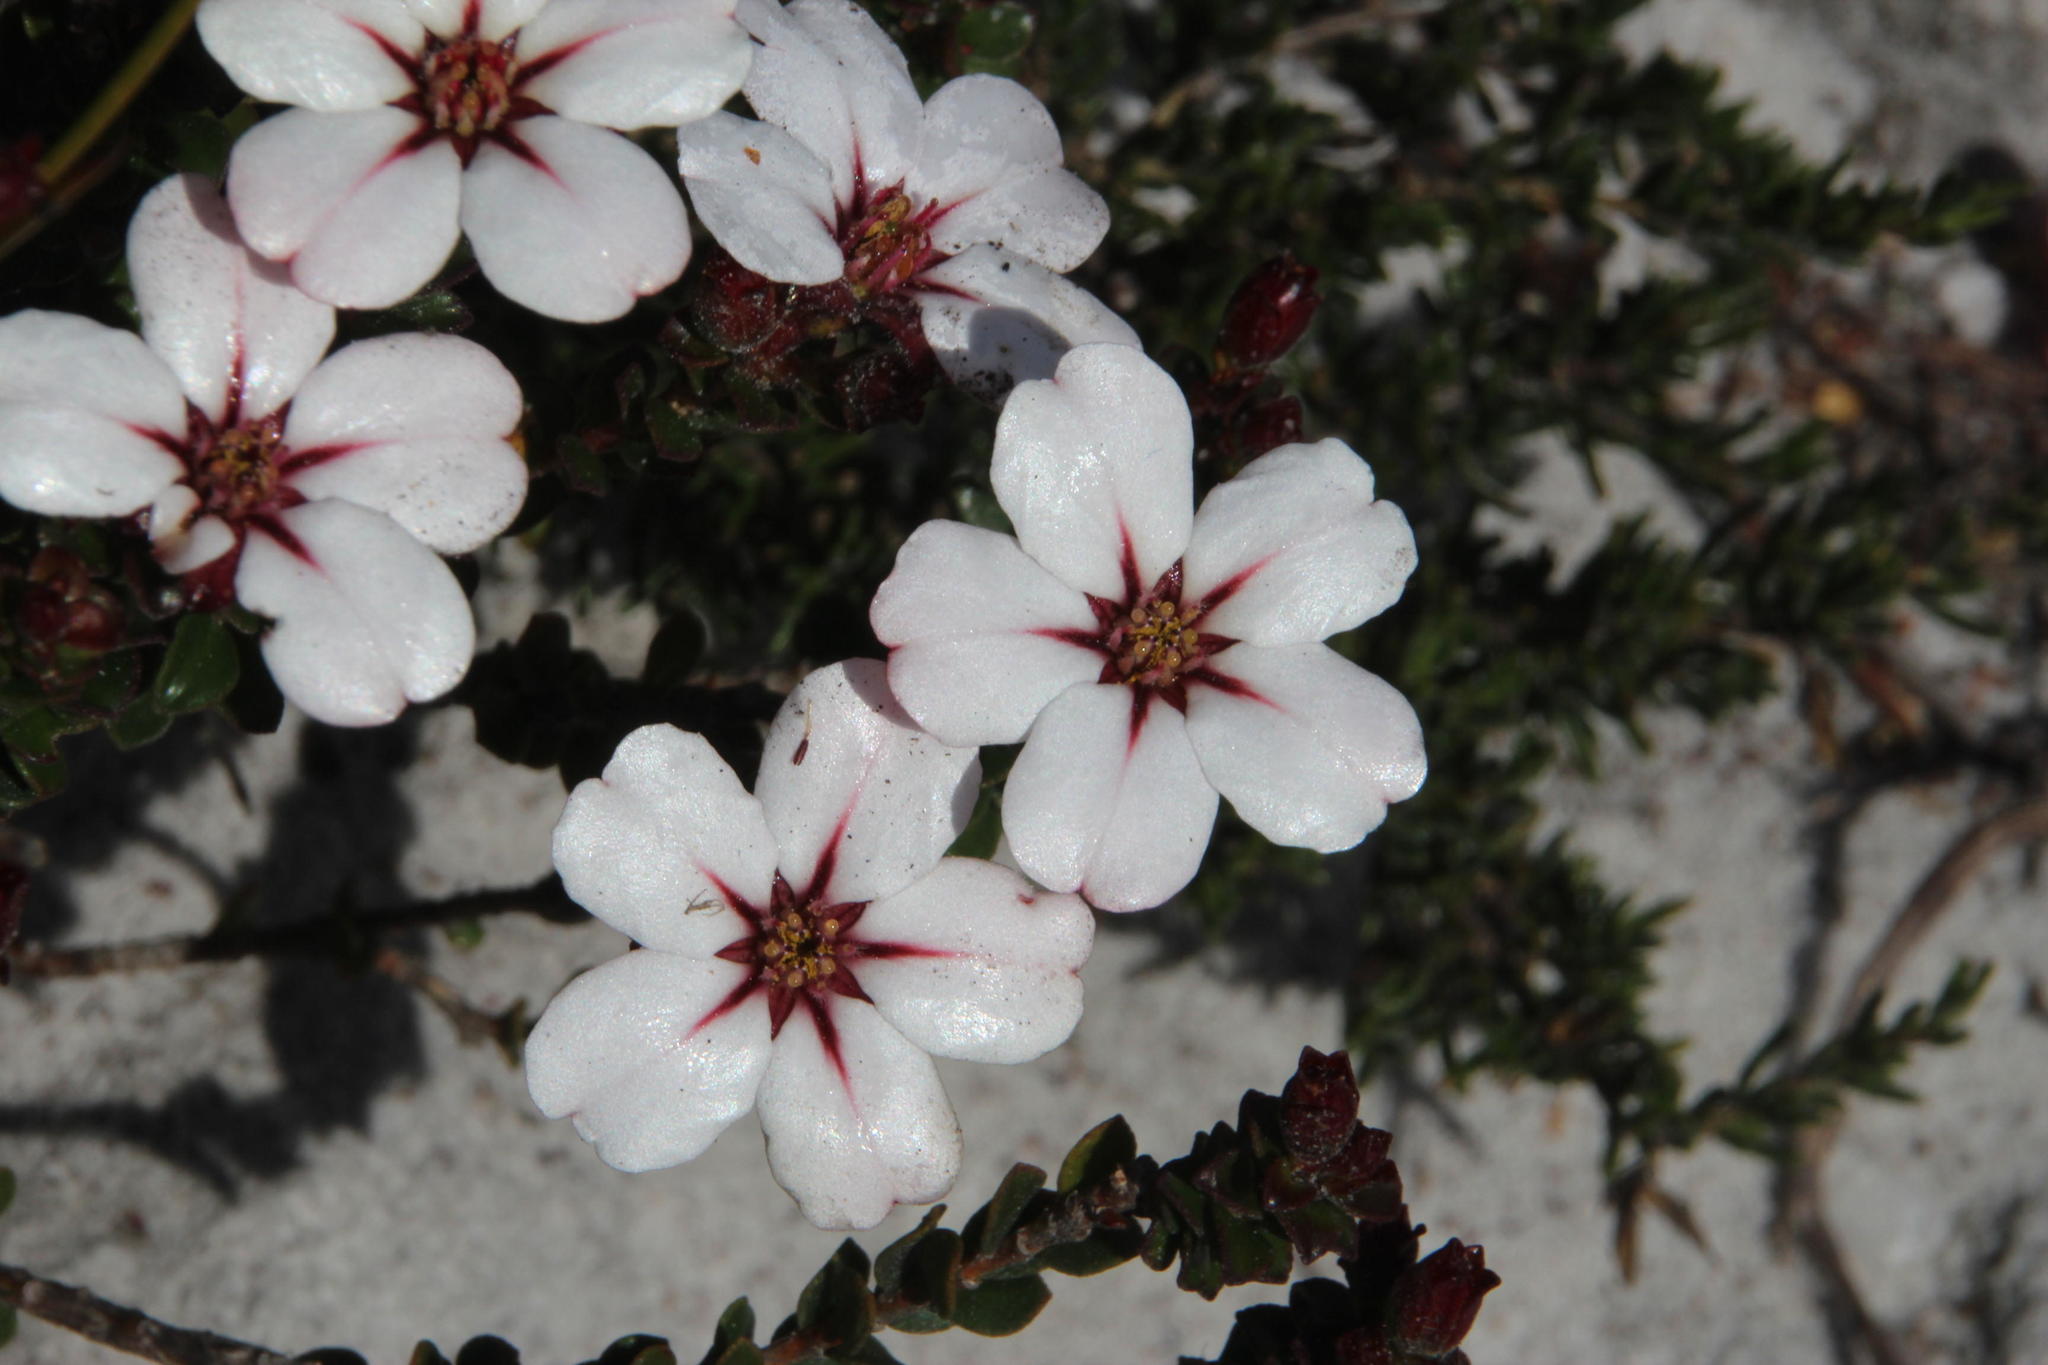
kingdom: Plantae
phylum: Tracheophyta
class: Magnoliopsida
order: Sapindales
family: Rutaceae
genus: Adenandra
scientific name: Adenandra villosa
